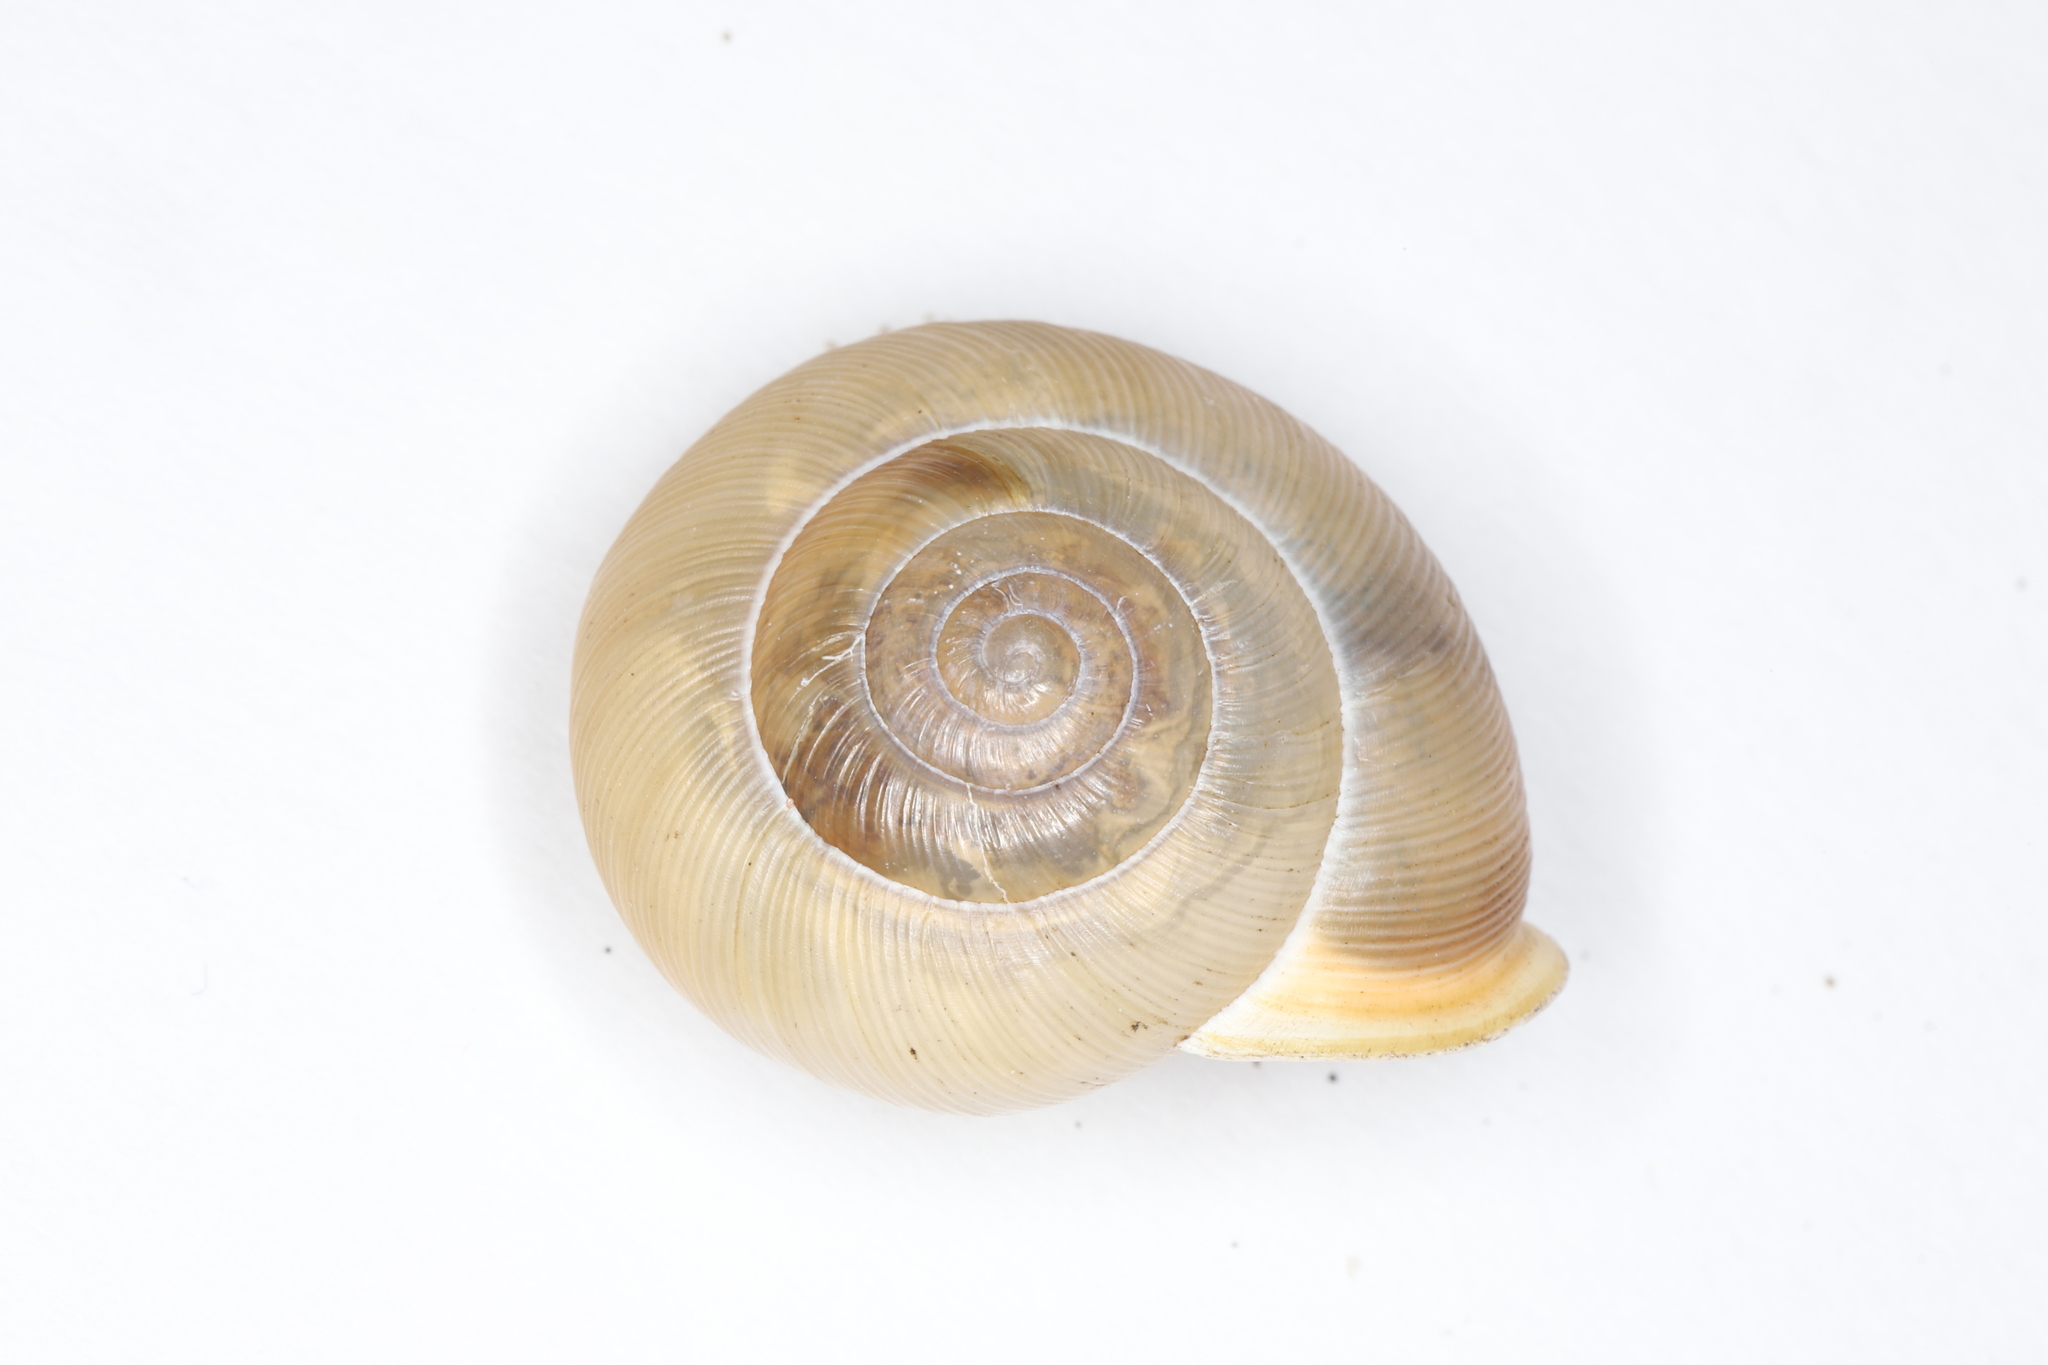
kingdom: Animalia
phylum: Mollusca
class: Gastropoda
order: Stylommatophora
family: Polygyridae
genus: Mesodon
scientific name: Mesodon thyroidus
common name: White-lip globe
